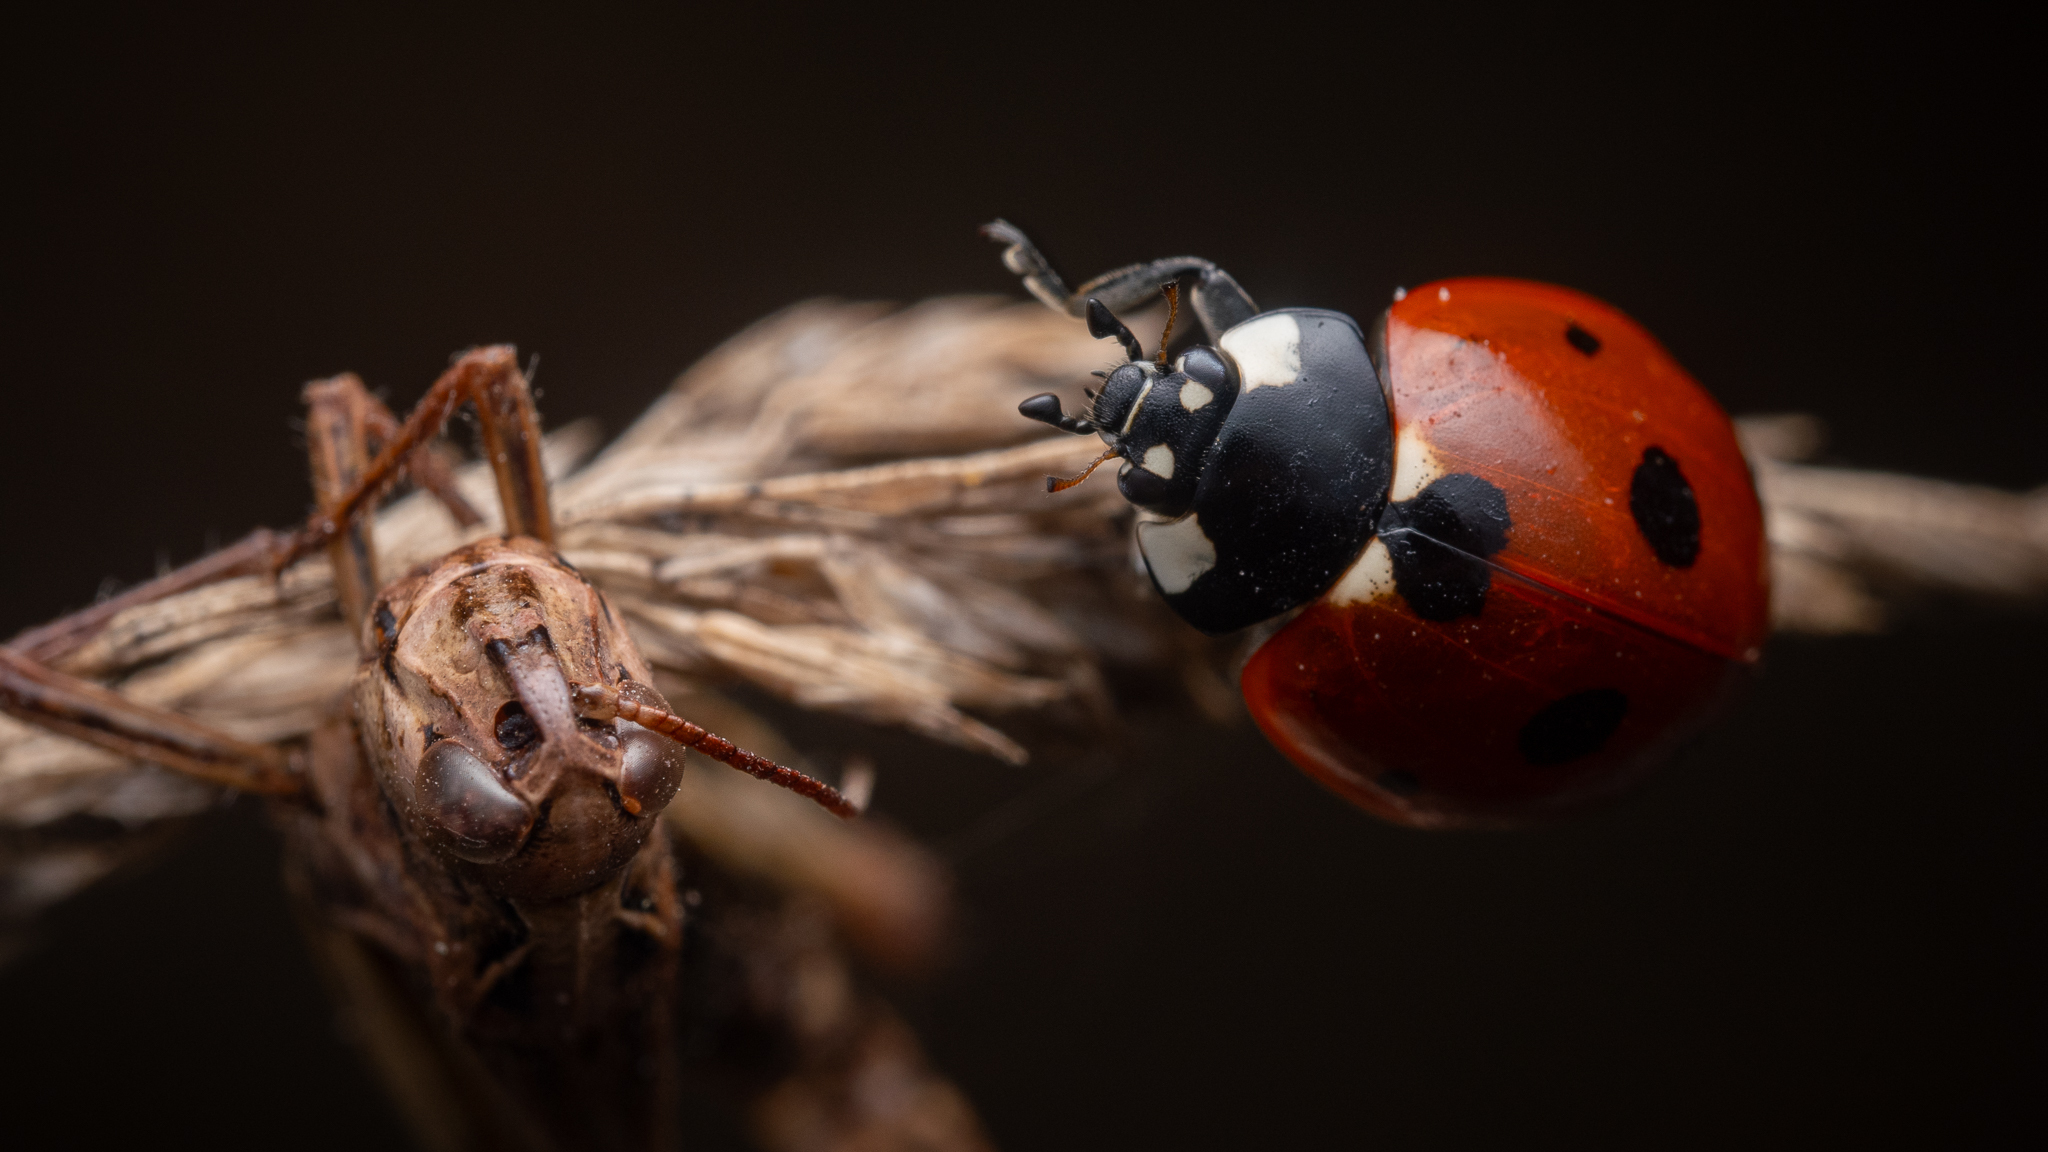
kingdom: Animalia
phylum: Arthropoda
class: Insecta
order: Coleoptera
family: Coccinellidae
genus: Coccinella
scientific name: Coccinella septempunctata
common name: Sevenspotted lady beetle
